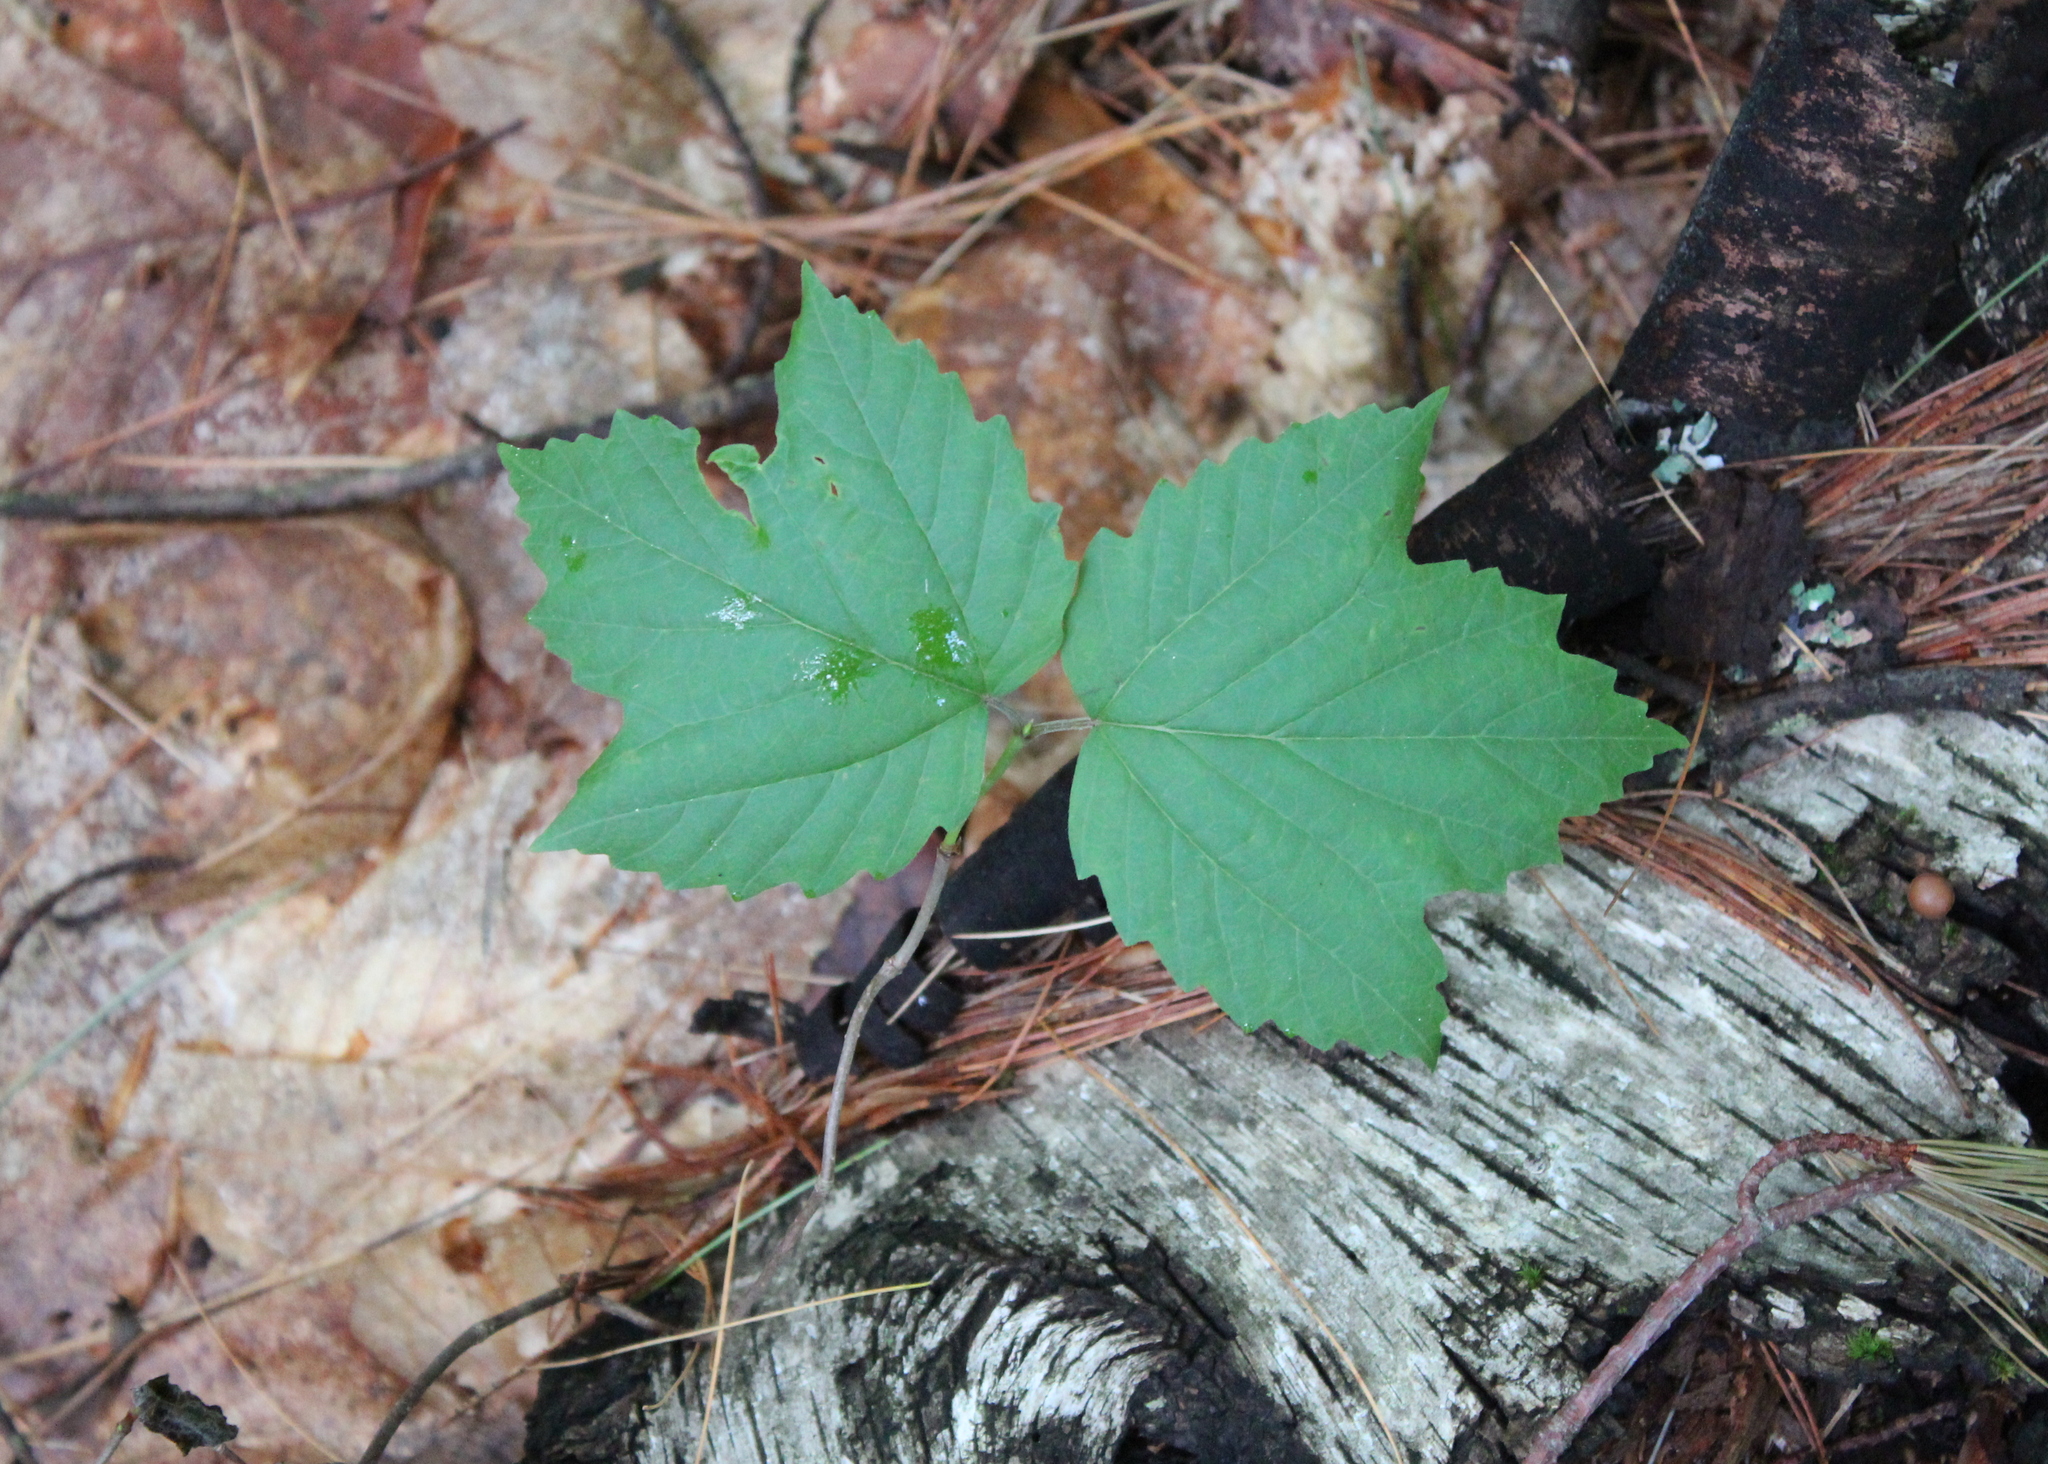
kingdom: Plantae
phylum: Tracheophyta
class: Magnoliopsida
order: Dipsacales
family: Viburnaceae
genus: Viburnum
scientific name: Viburnum acerifolium
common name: Dockmackie
